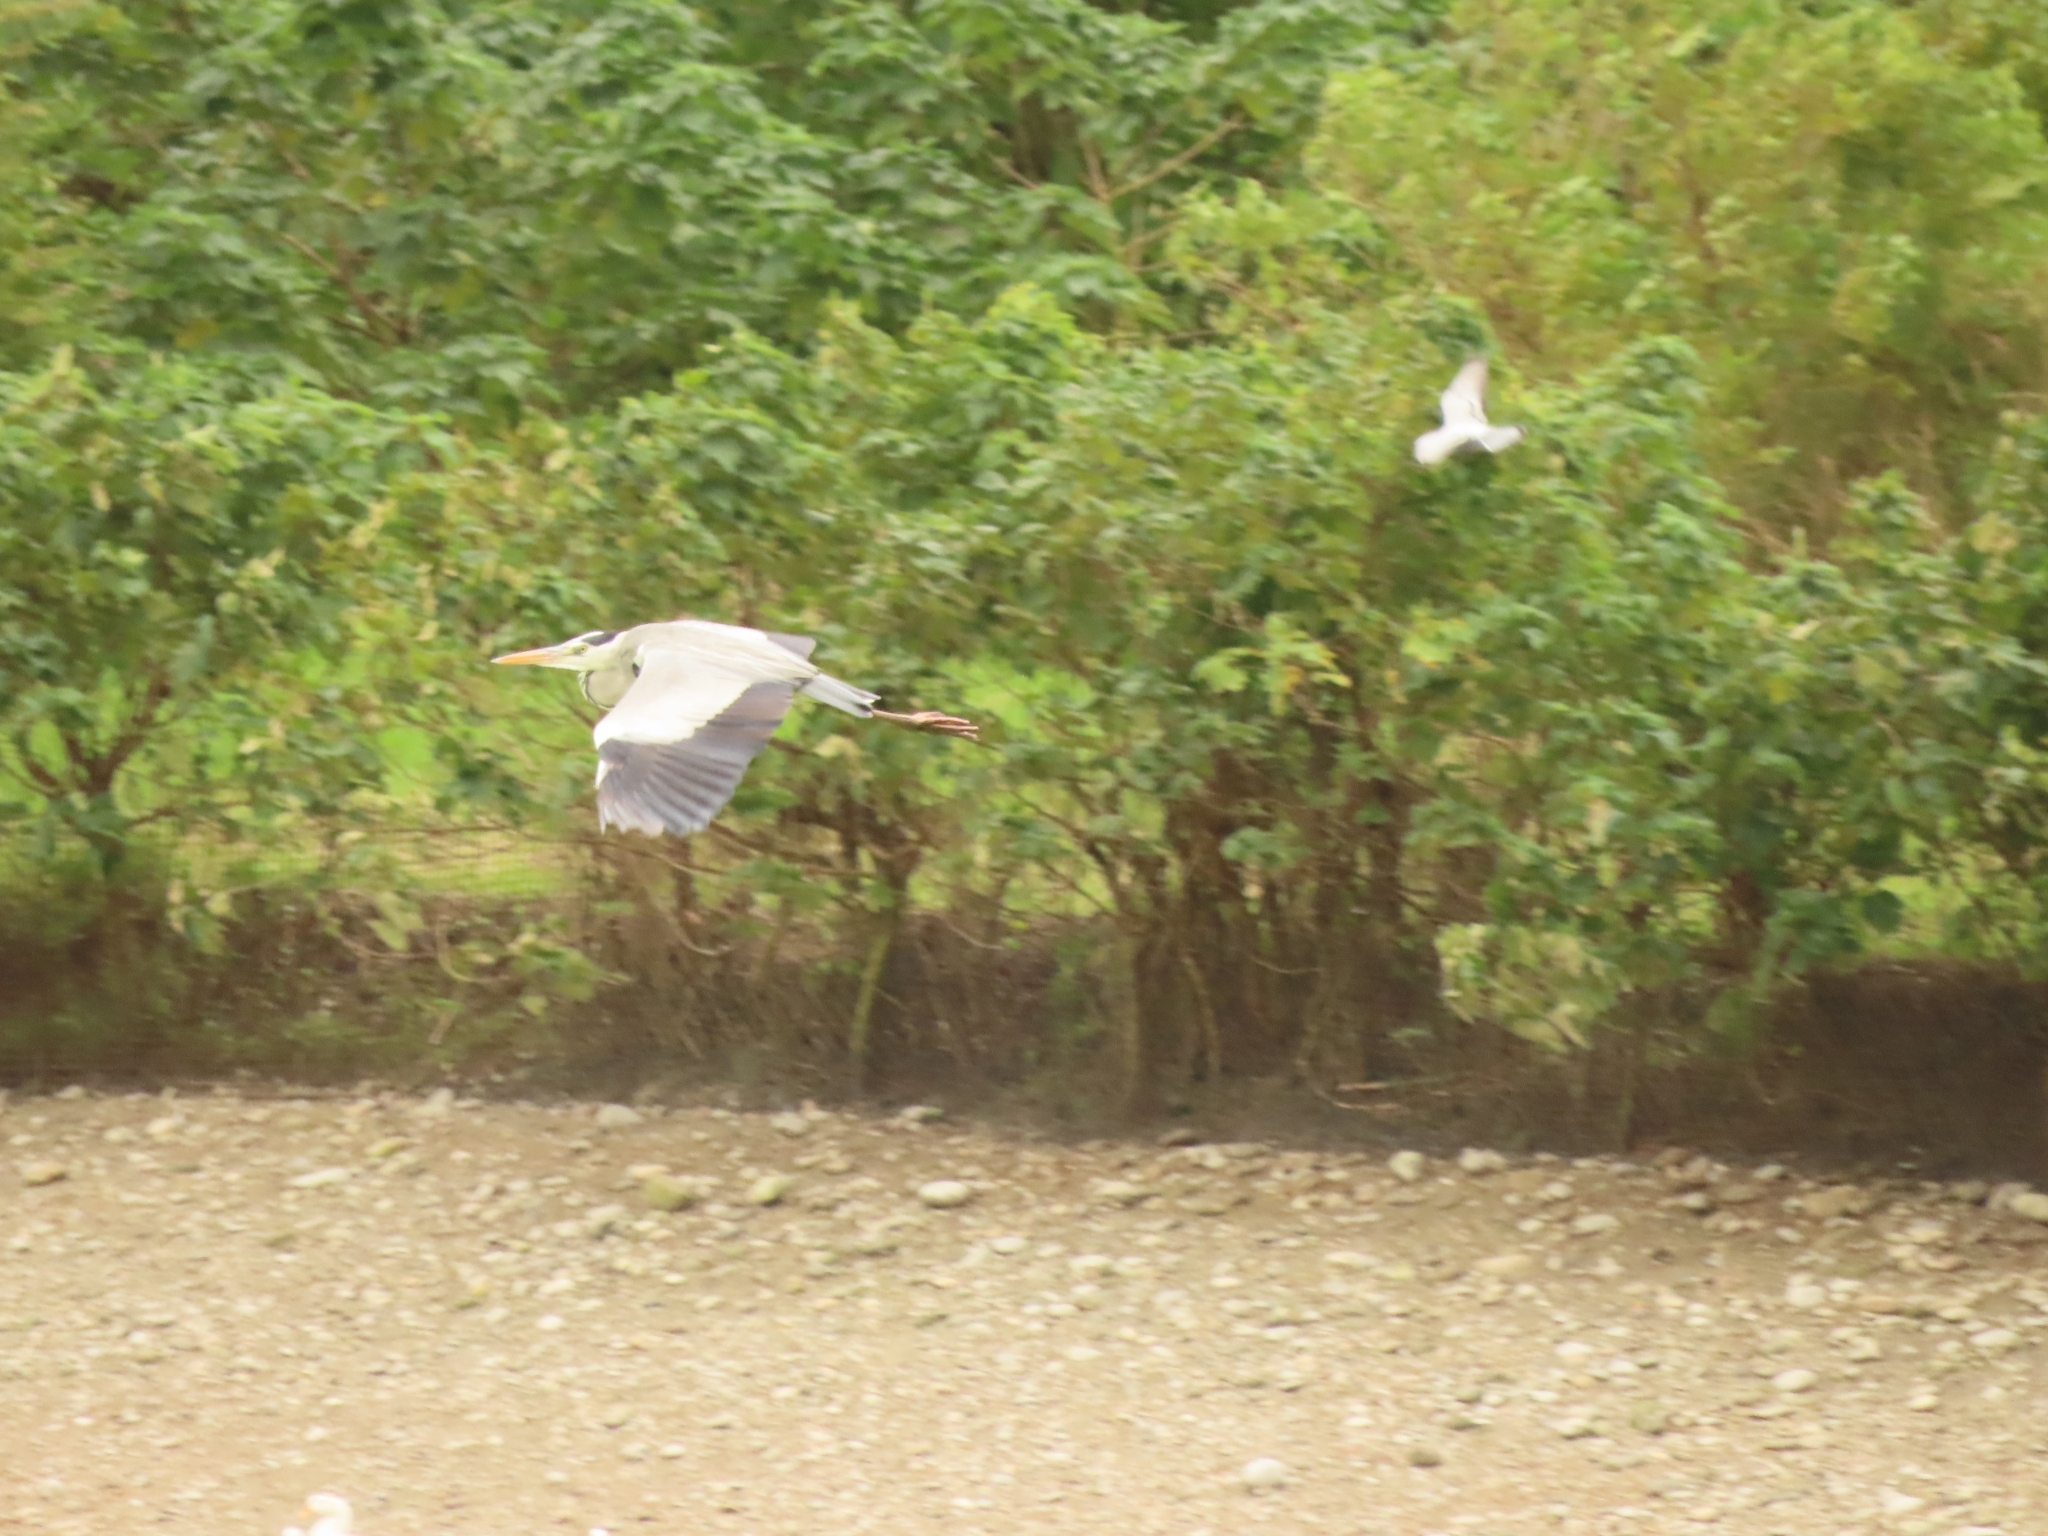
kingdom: Animalia
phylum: Chordata
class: Aves
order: Pelecaniformes
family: Ardeidae
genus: Ardea
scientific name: Ardea cinerea
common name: Grey heron
